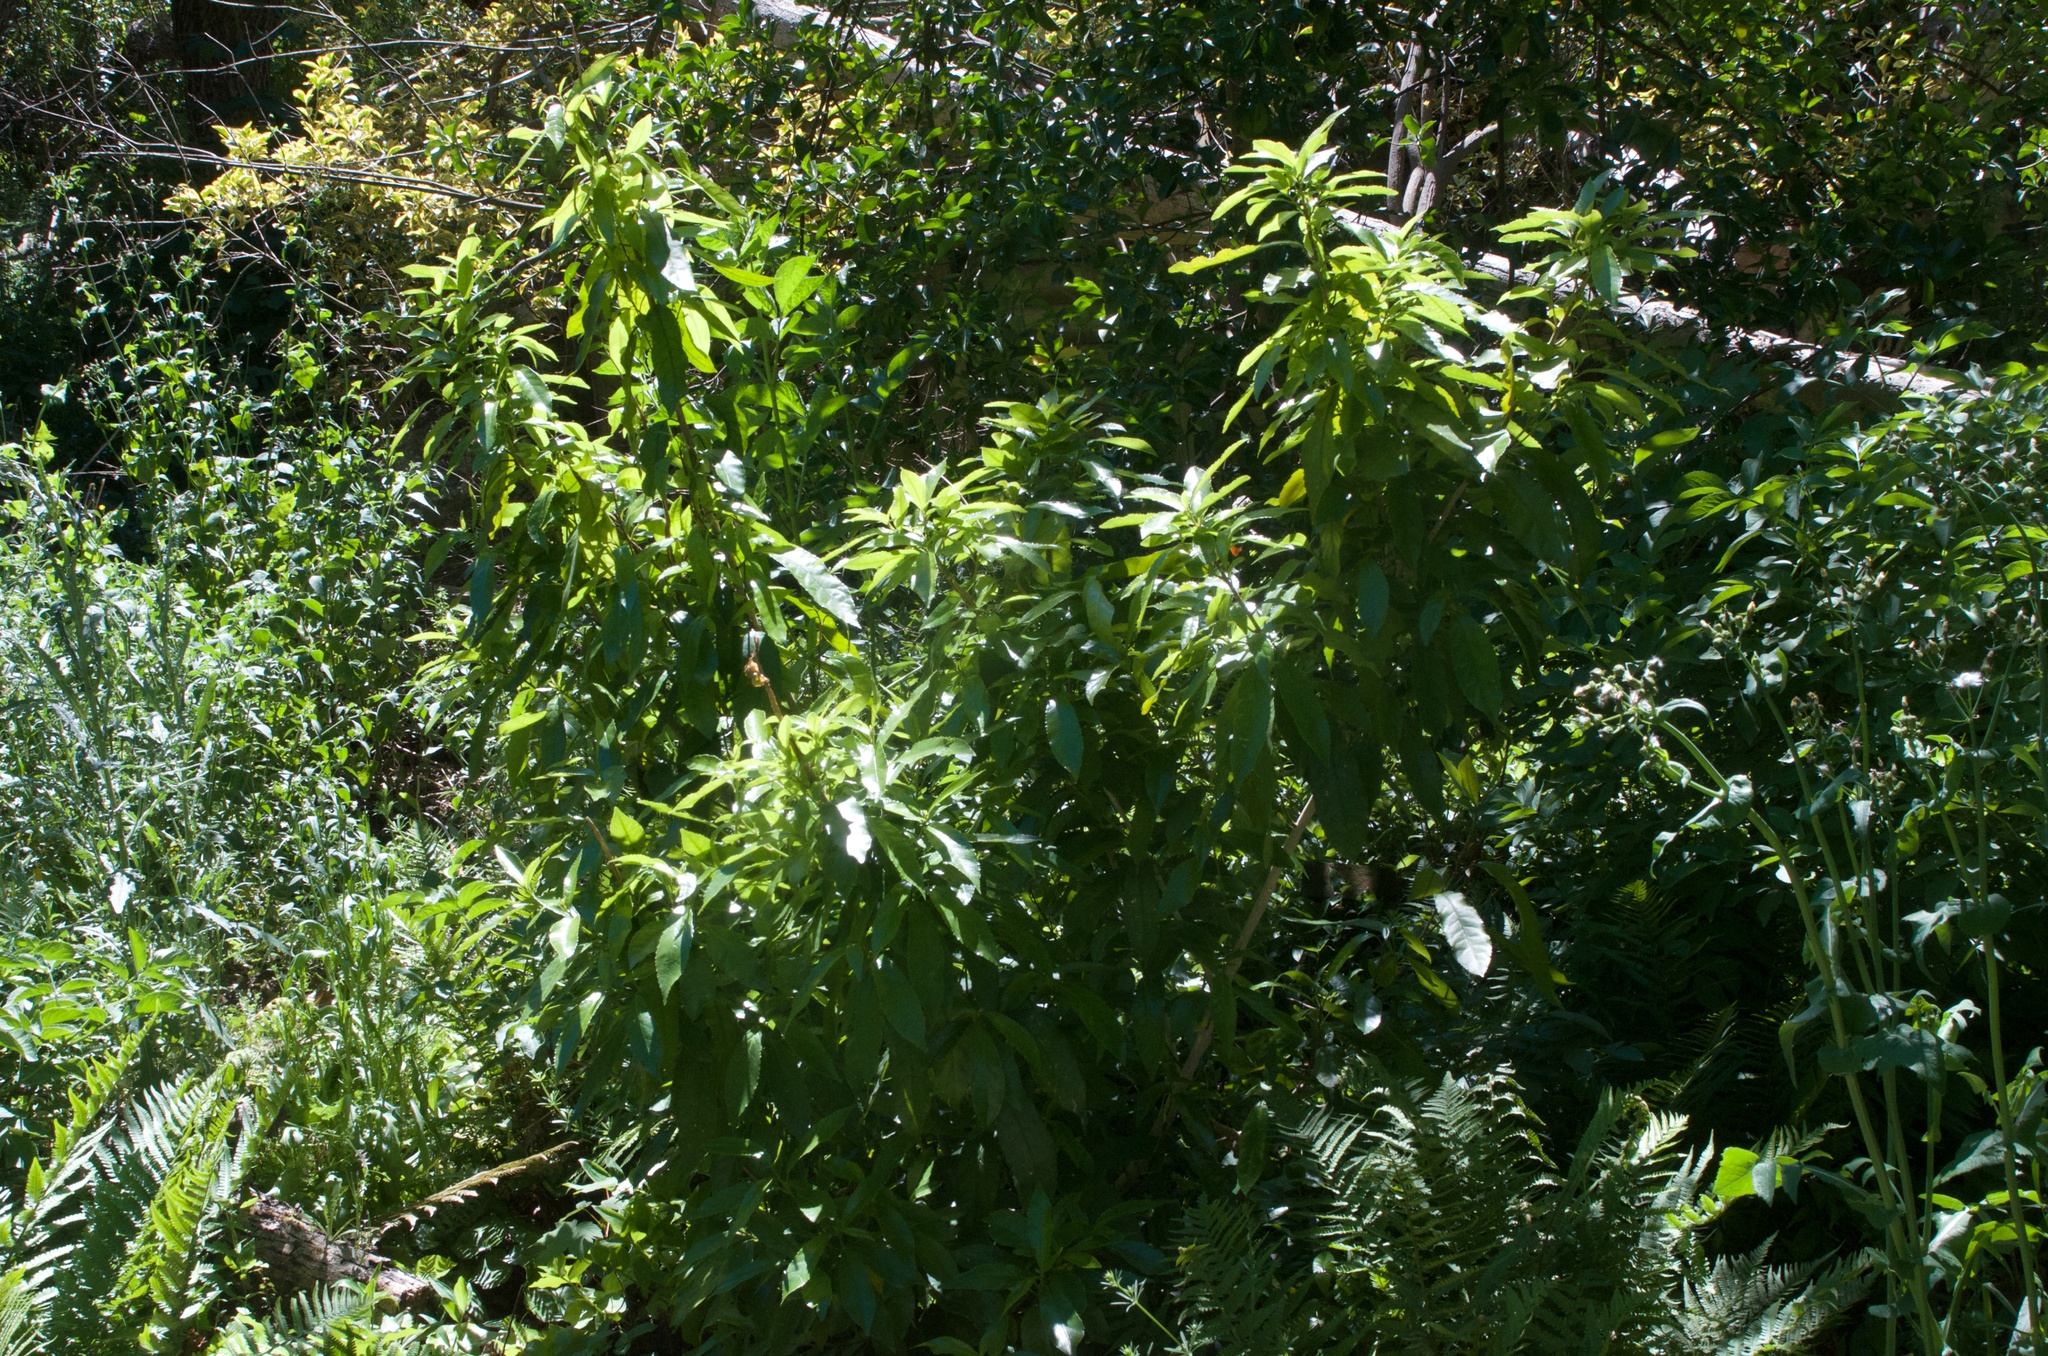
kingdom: Plantae
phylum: Tracheophyta
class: Magnoliopsida
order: Malpighiales
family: Violaceae
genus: Melicytus
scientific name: Melicytus ramiflorus
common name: Mahoe
